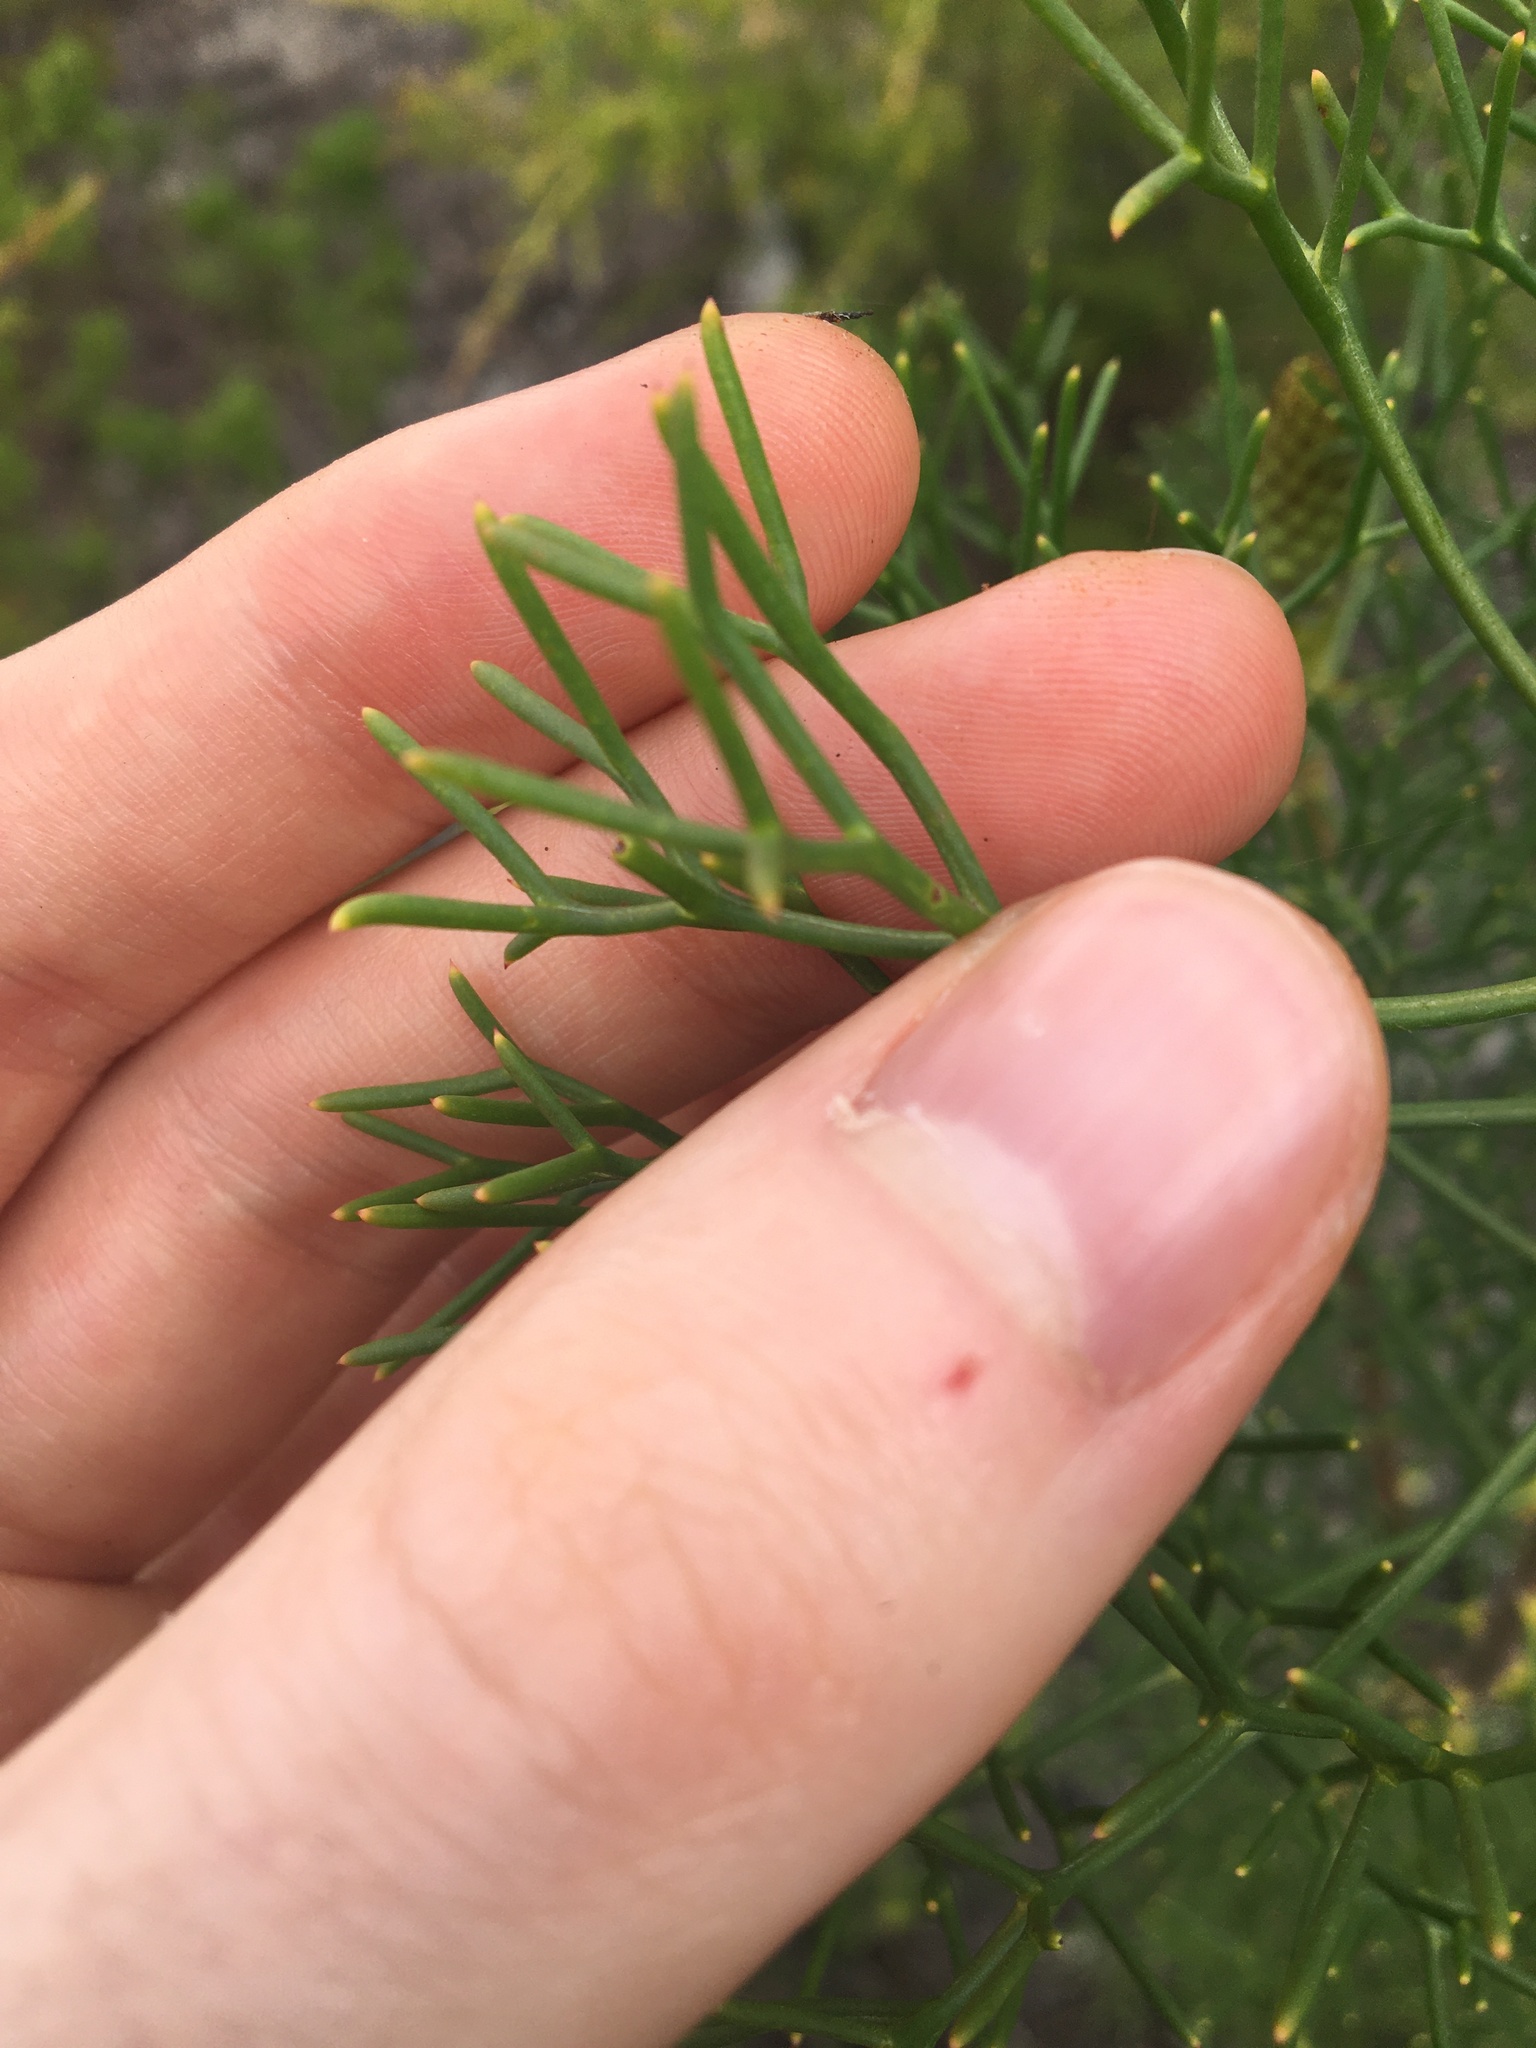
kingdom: Plantae
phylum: Tracheophyta
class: Magnoliopsida
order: Proteales
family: Proteaceae
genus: Petrophile
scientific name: Petrophile pulchella
